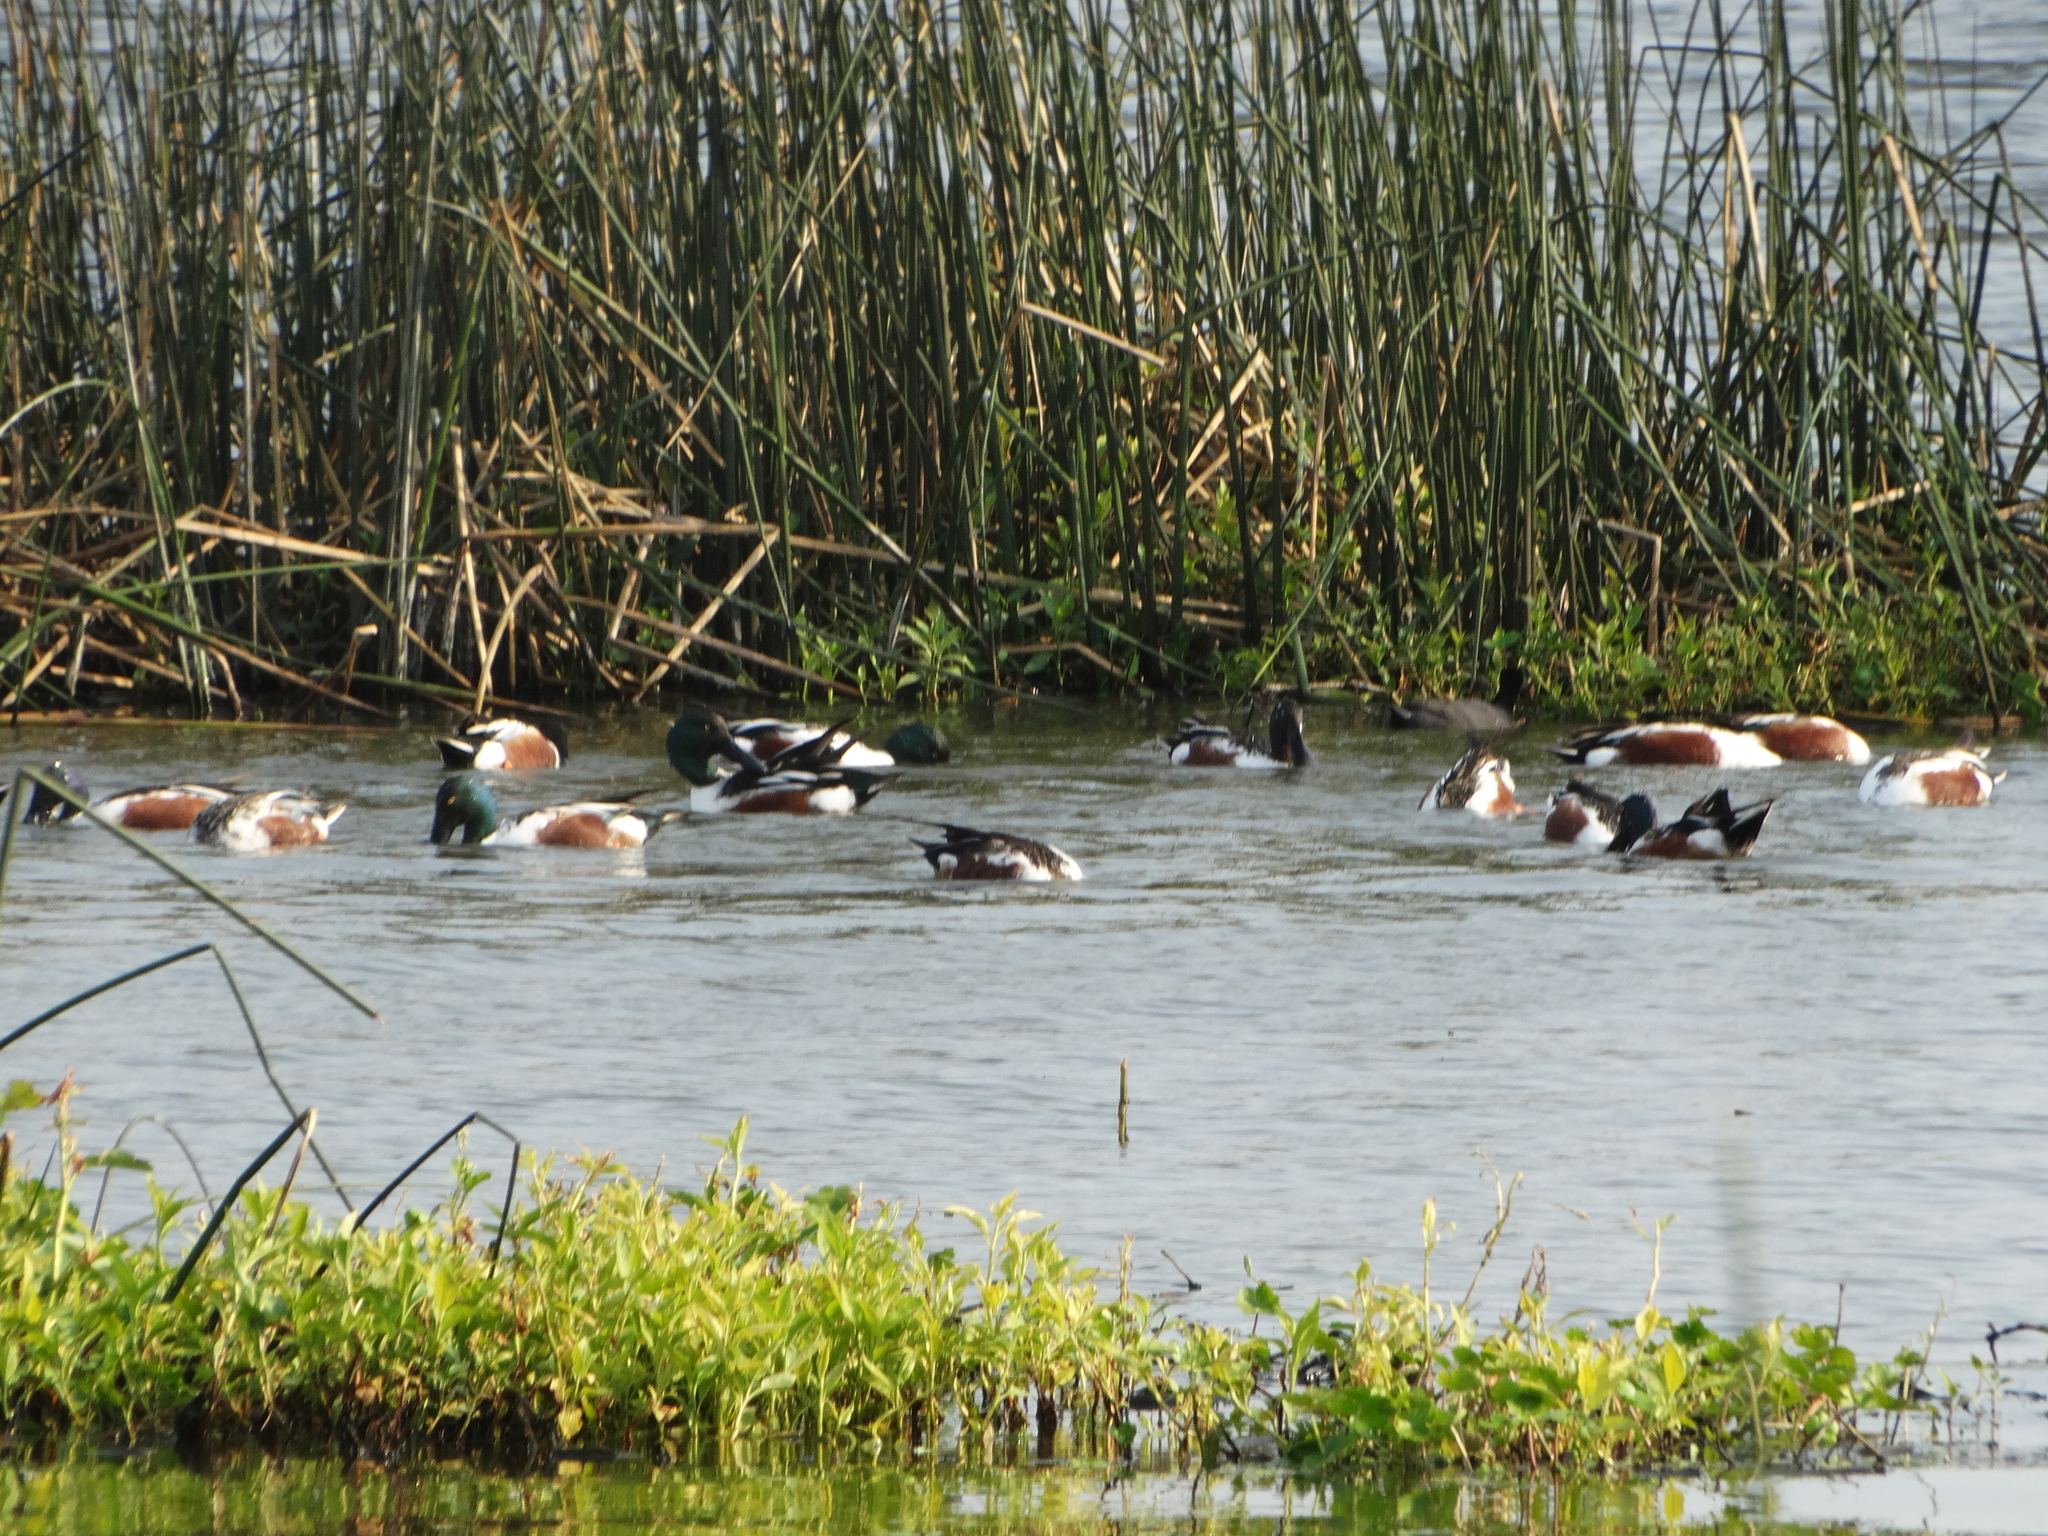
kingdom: Animalia
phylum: Chordata
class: Aves
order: Anseriformes
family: Anatidae
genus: Spatula
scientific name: Spatula clypeata
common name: Northern shoveler
